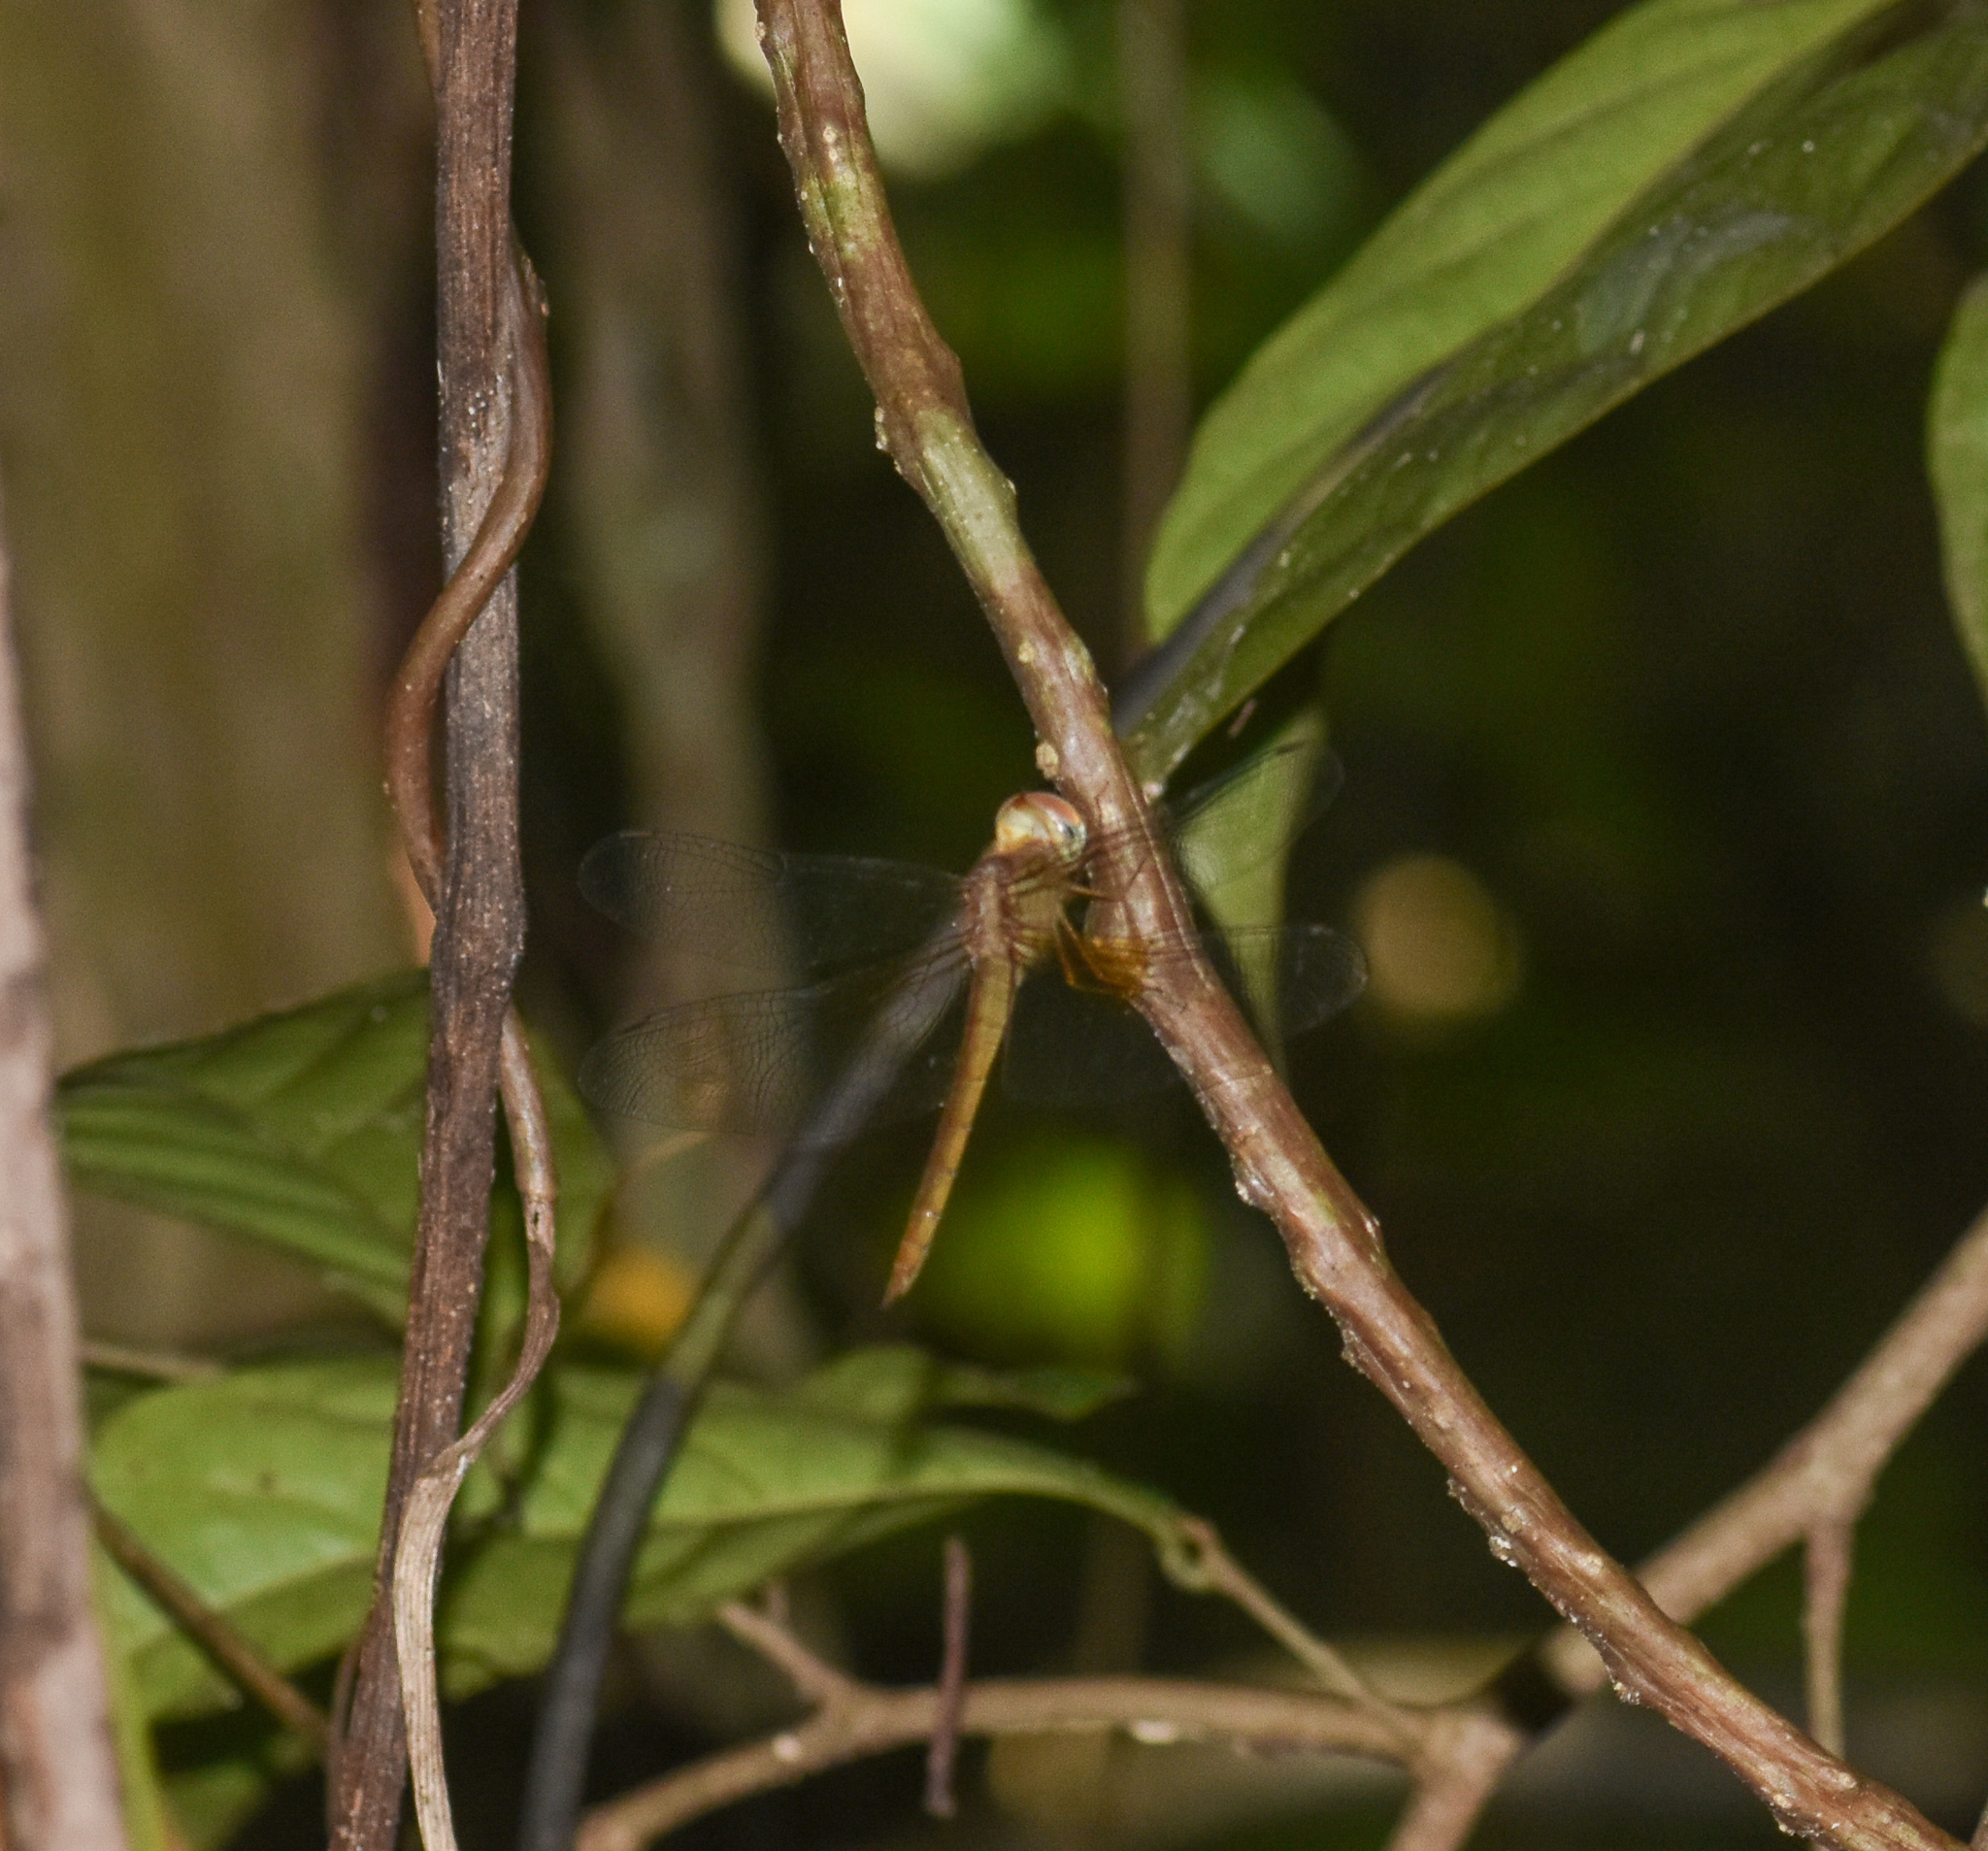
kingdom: Animalia
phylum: Arthropoda
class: Insecta
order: Odonata
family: Libellulidae
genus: Tholymis
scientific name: Tholymis tillarga
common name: Coral-tailed cloud wing
